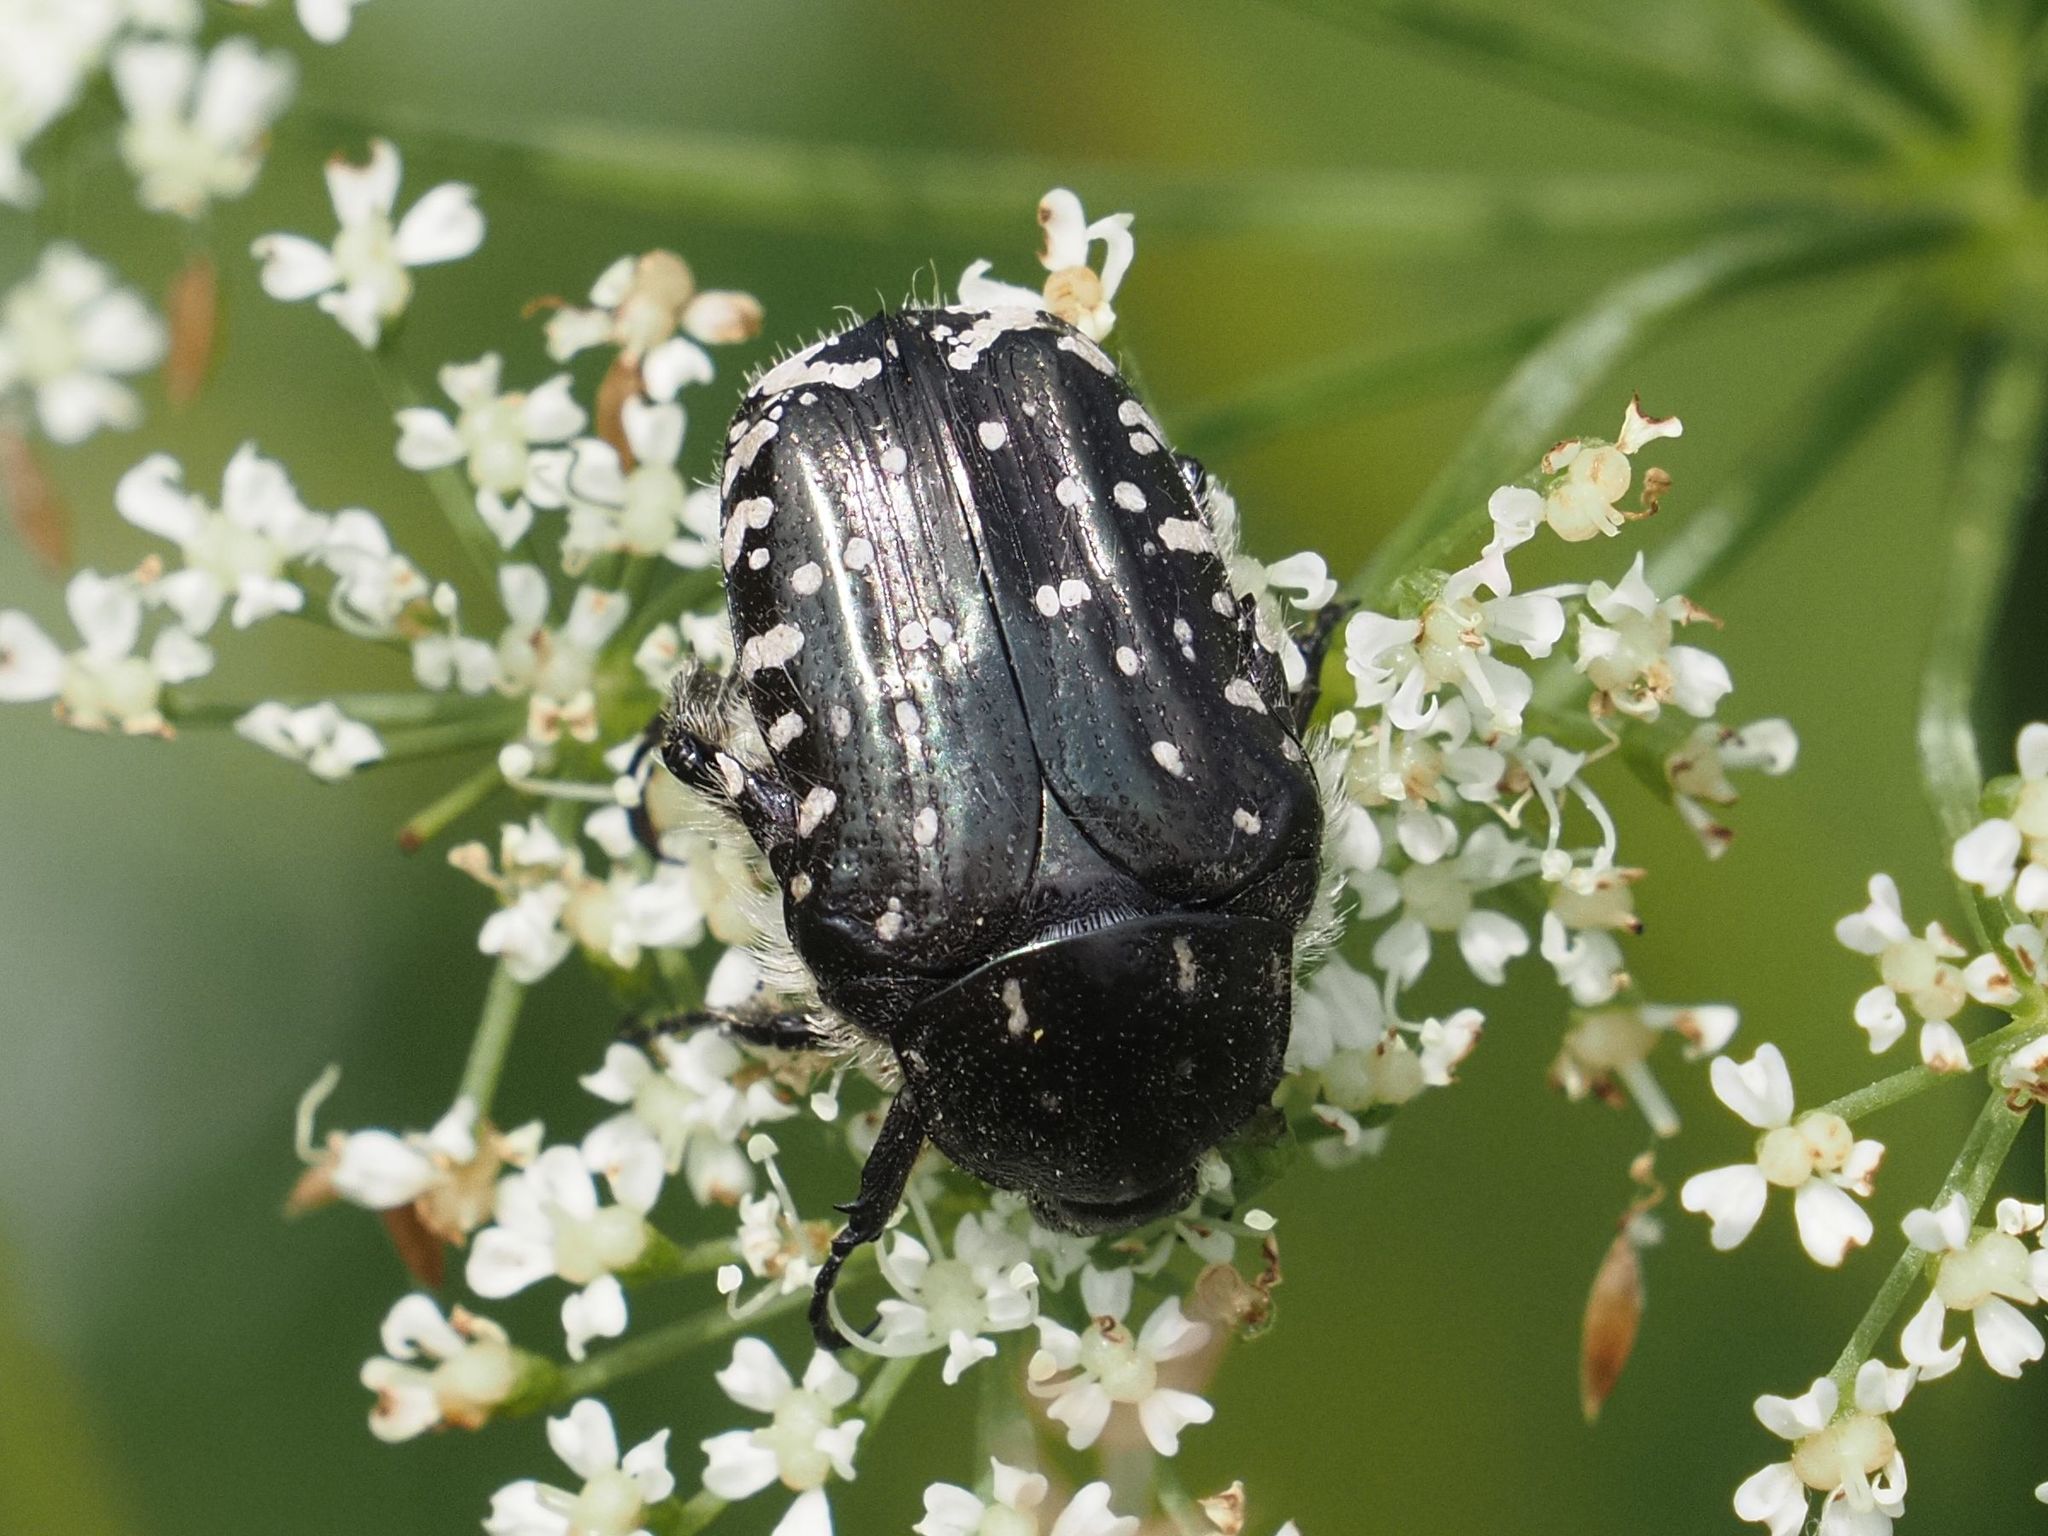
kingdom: Animalia
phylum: Arthropoda
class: Insecta
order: Coleoptera
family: Scarabaeidae
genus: Oxythyrea
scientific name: Oxythyrea funesta
